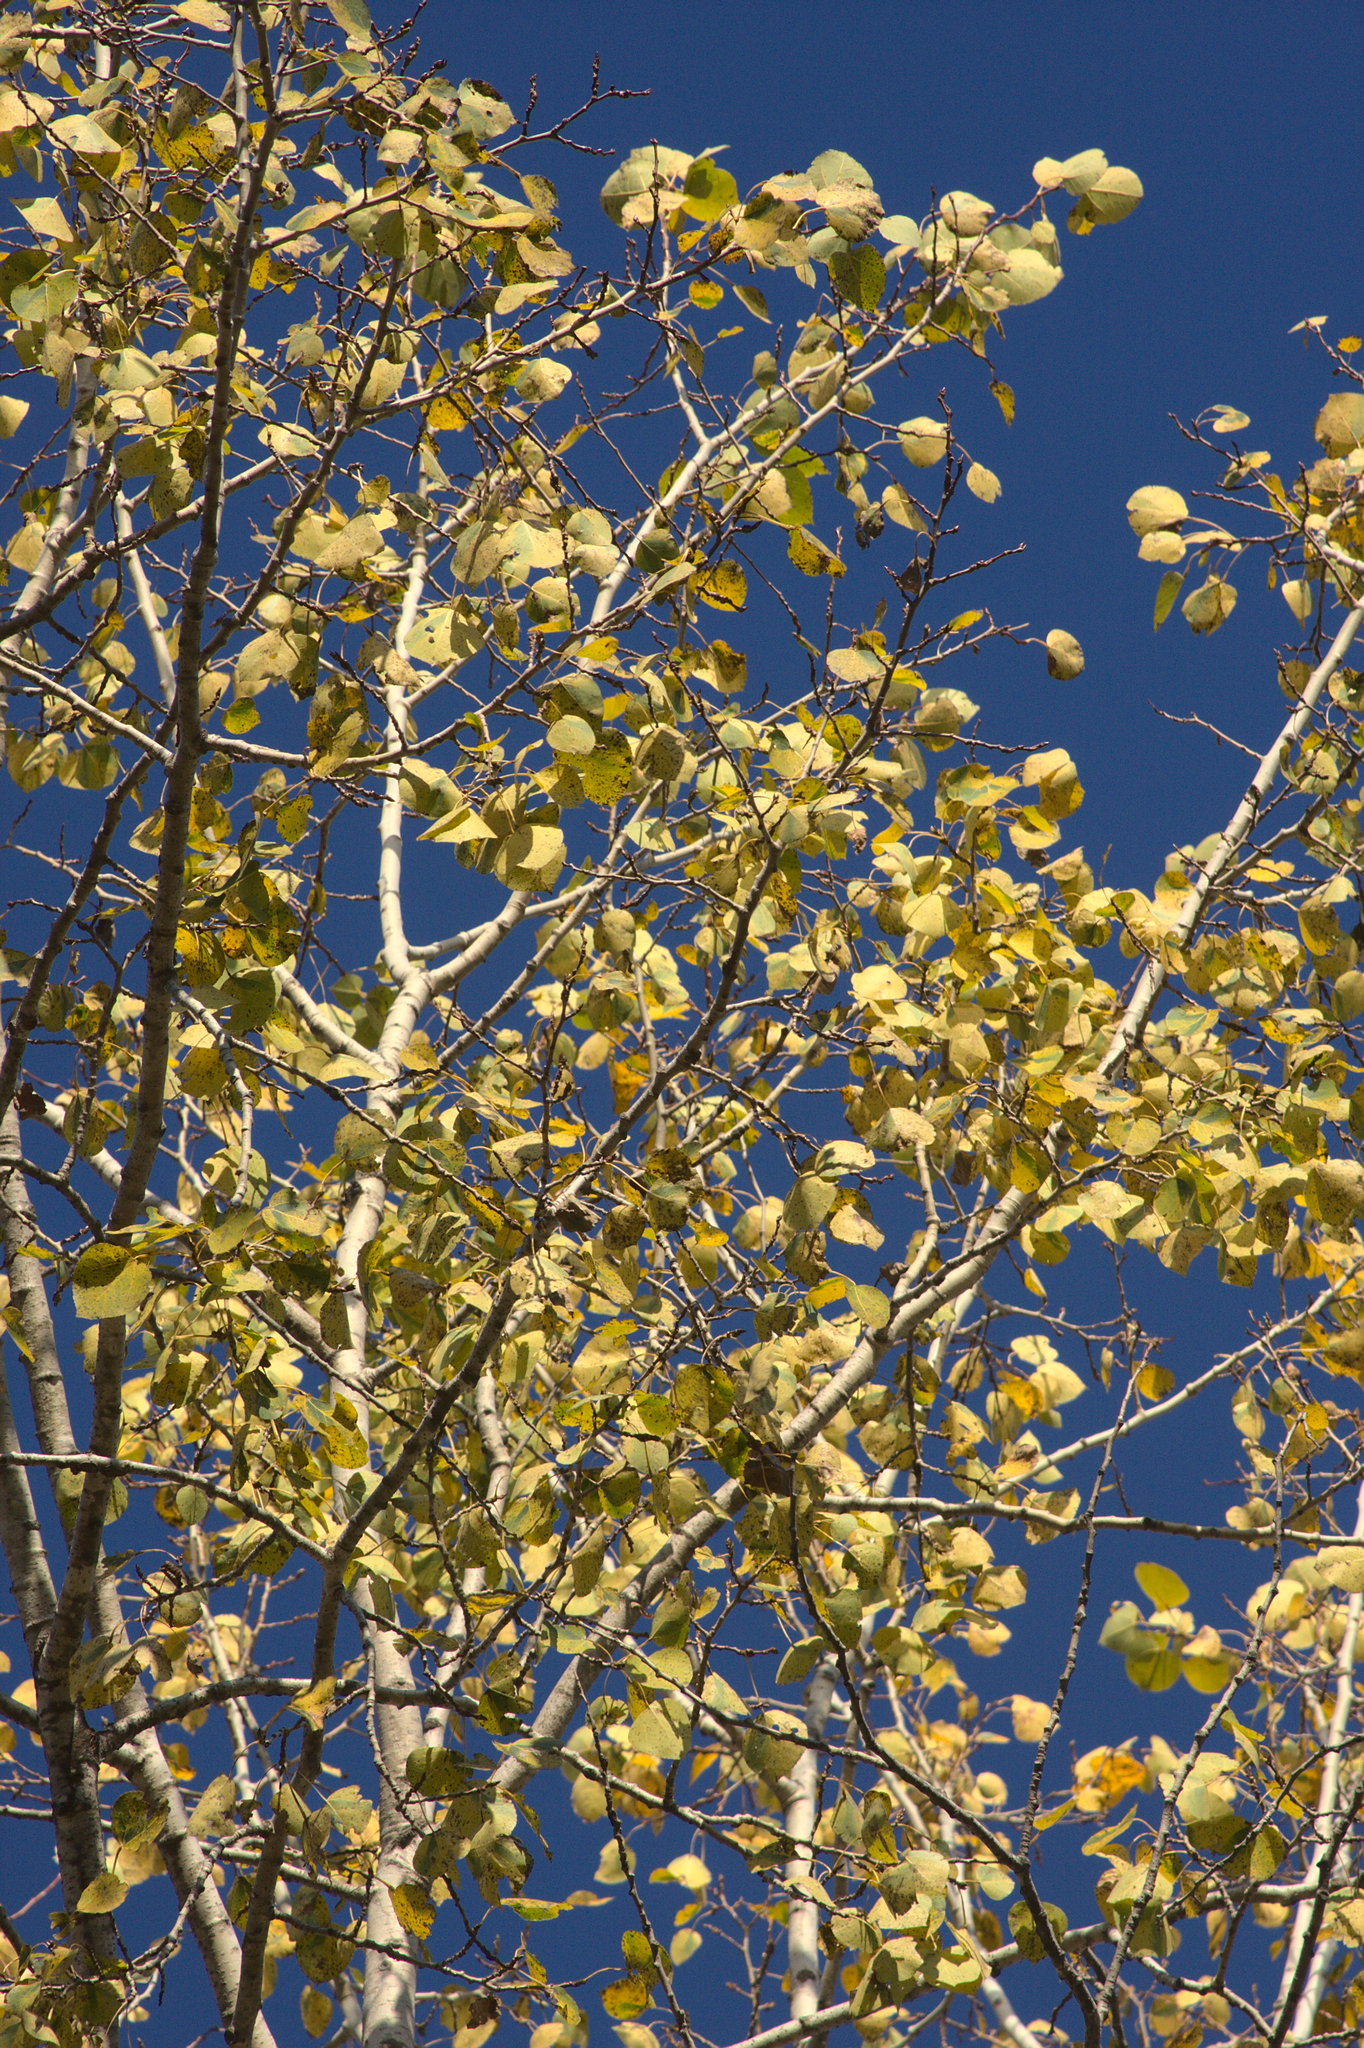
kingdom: Plantae
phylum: Tracheophyta
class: Magnoliopsida
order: Malpighiales
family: Salicaceae
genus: Populus
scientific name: Populus tremuloides
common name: Quaking aspen
